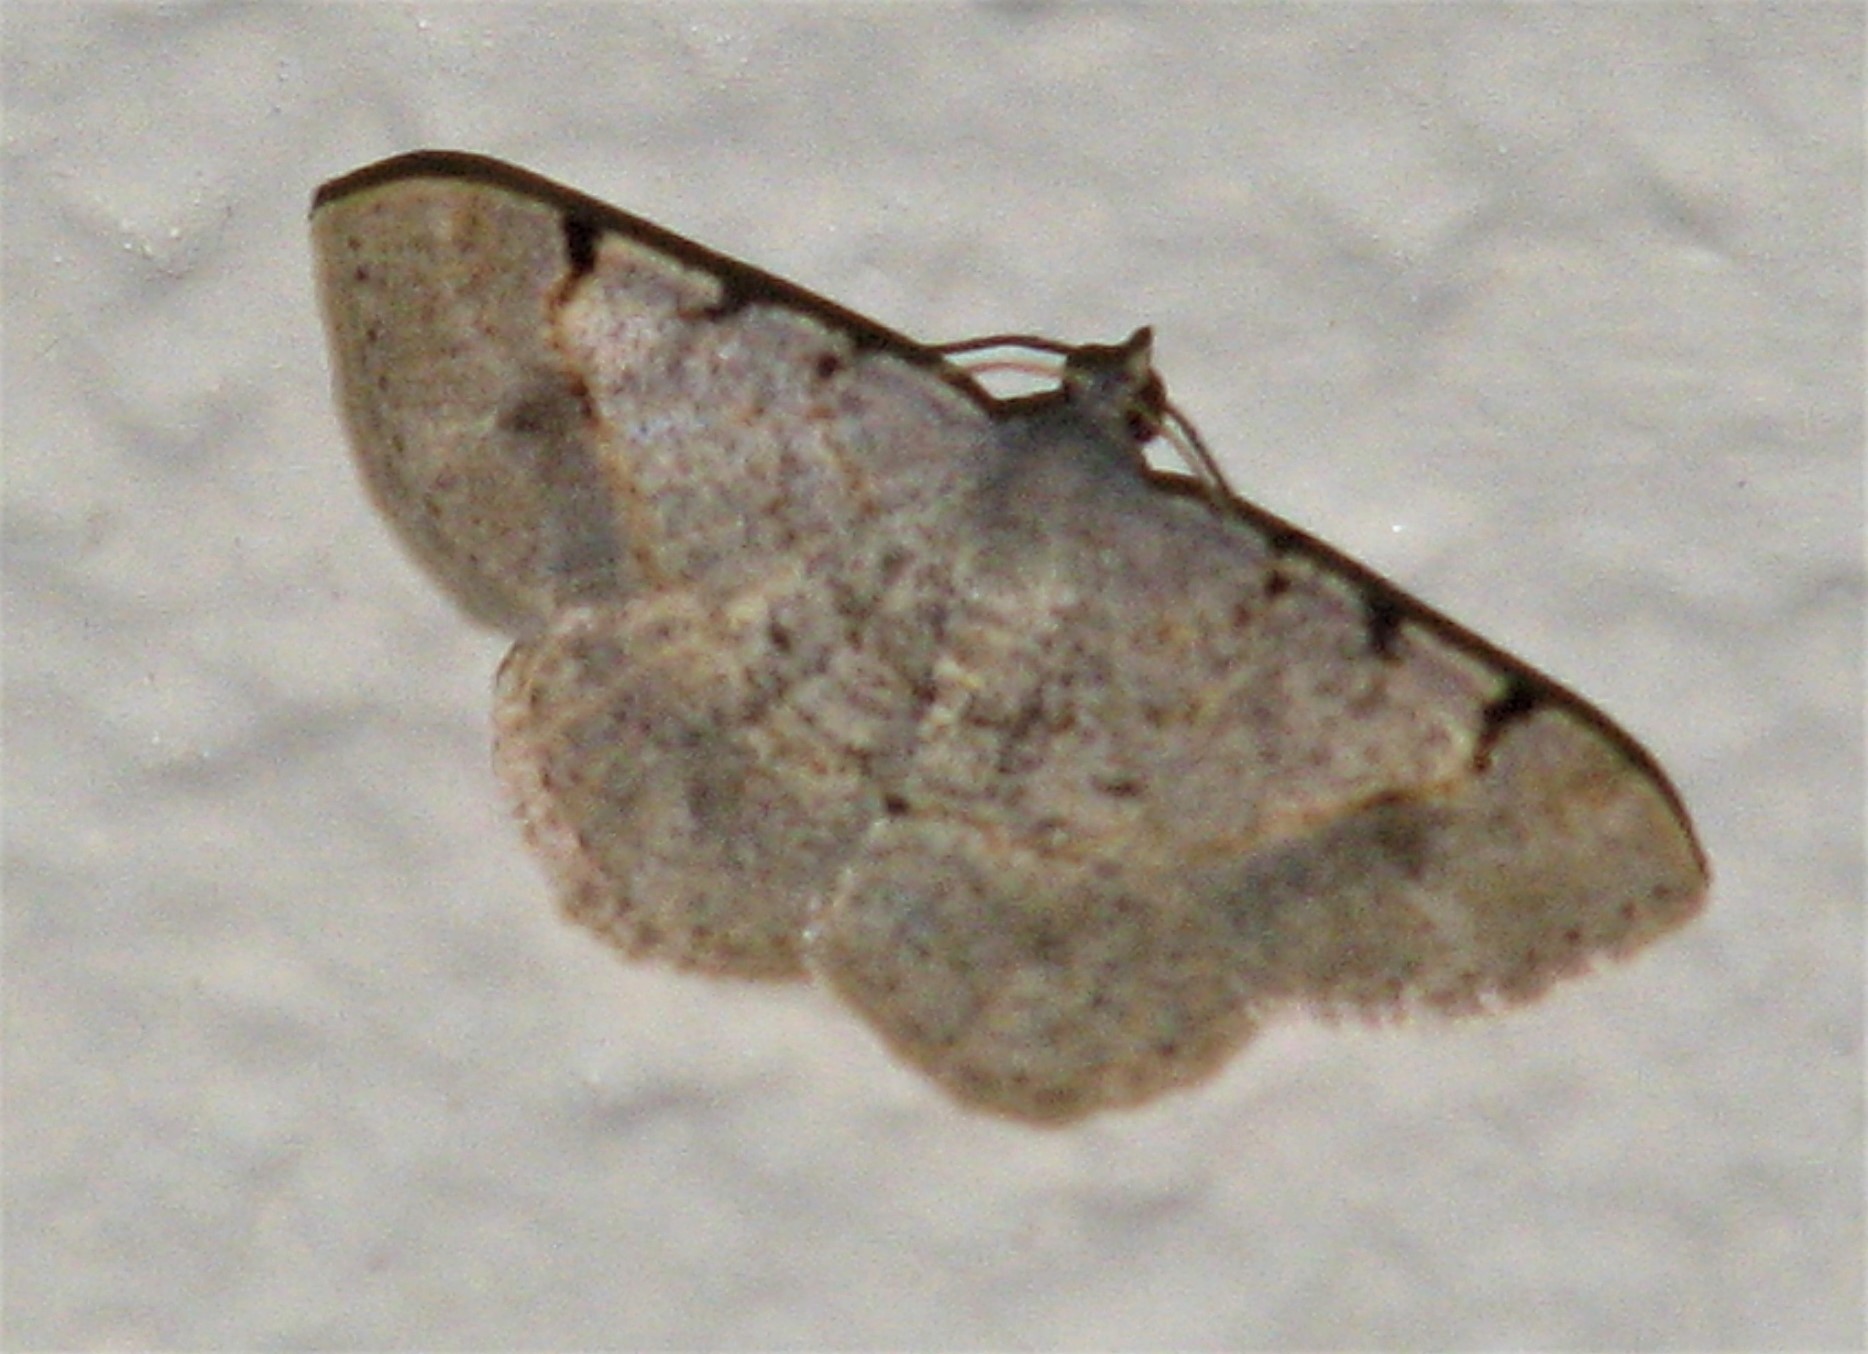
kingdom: Animalia
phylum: Arthropoda
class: Insecta
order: Lepidoptera
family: Geometridae
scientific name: Geometridae
